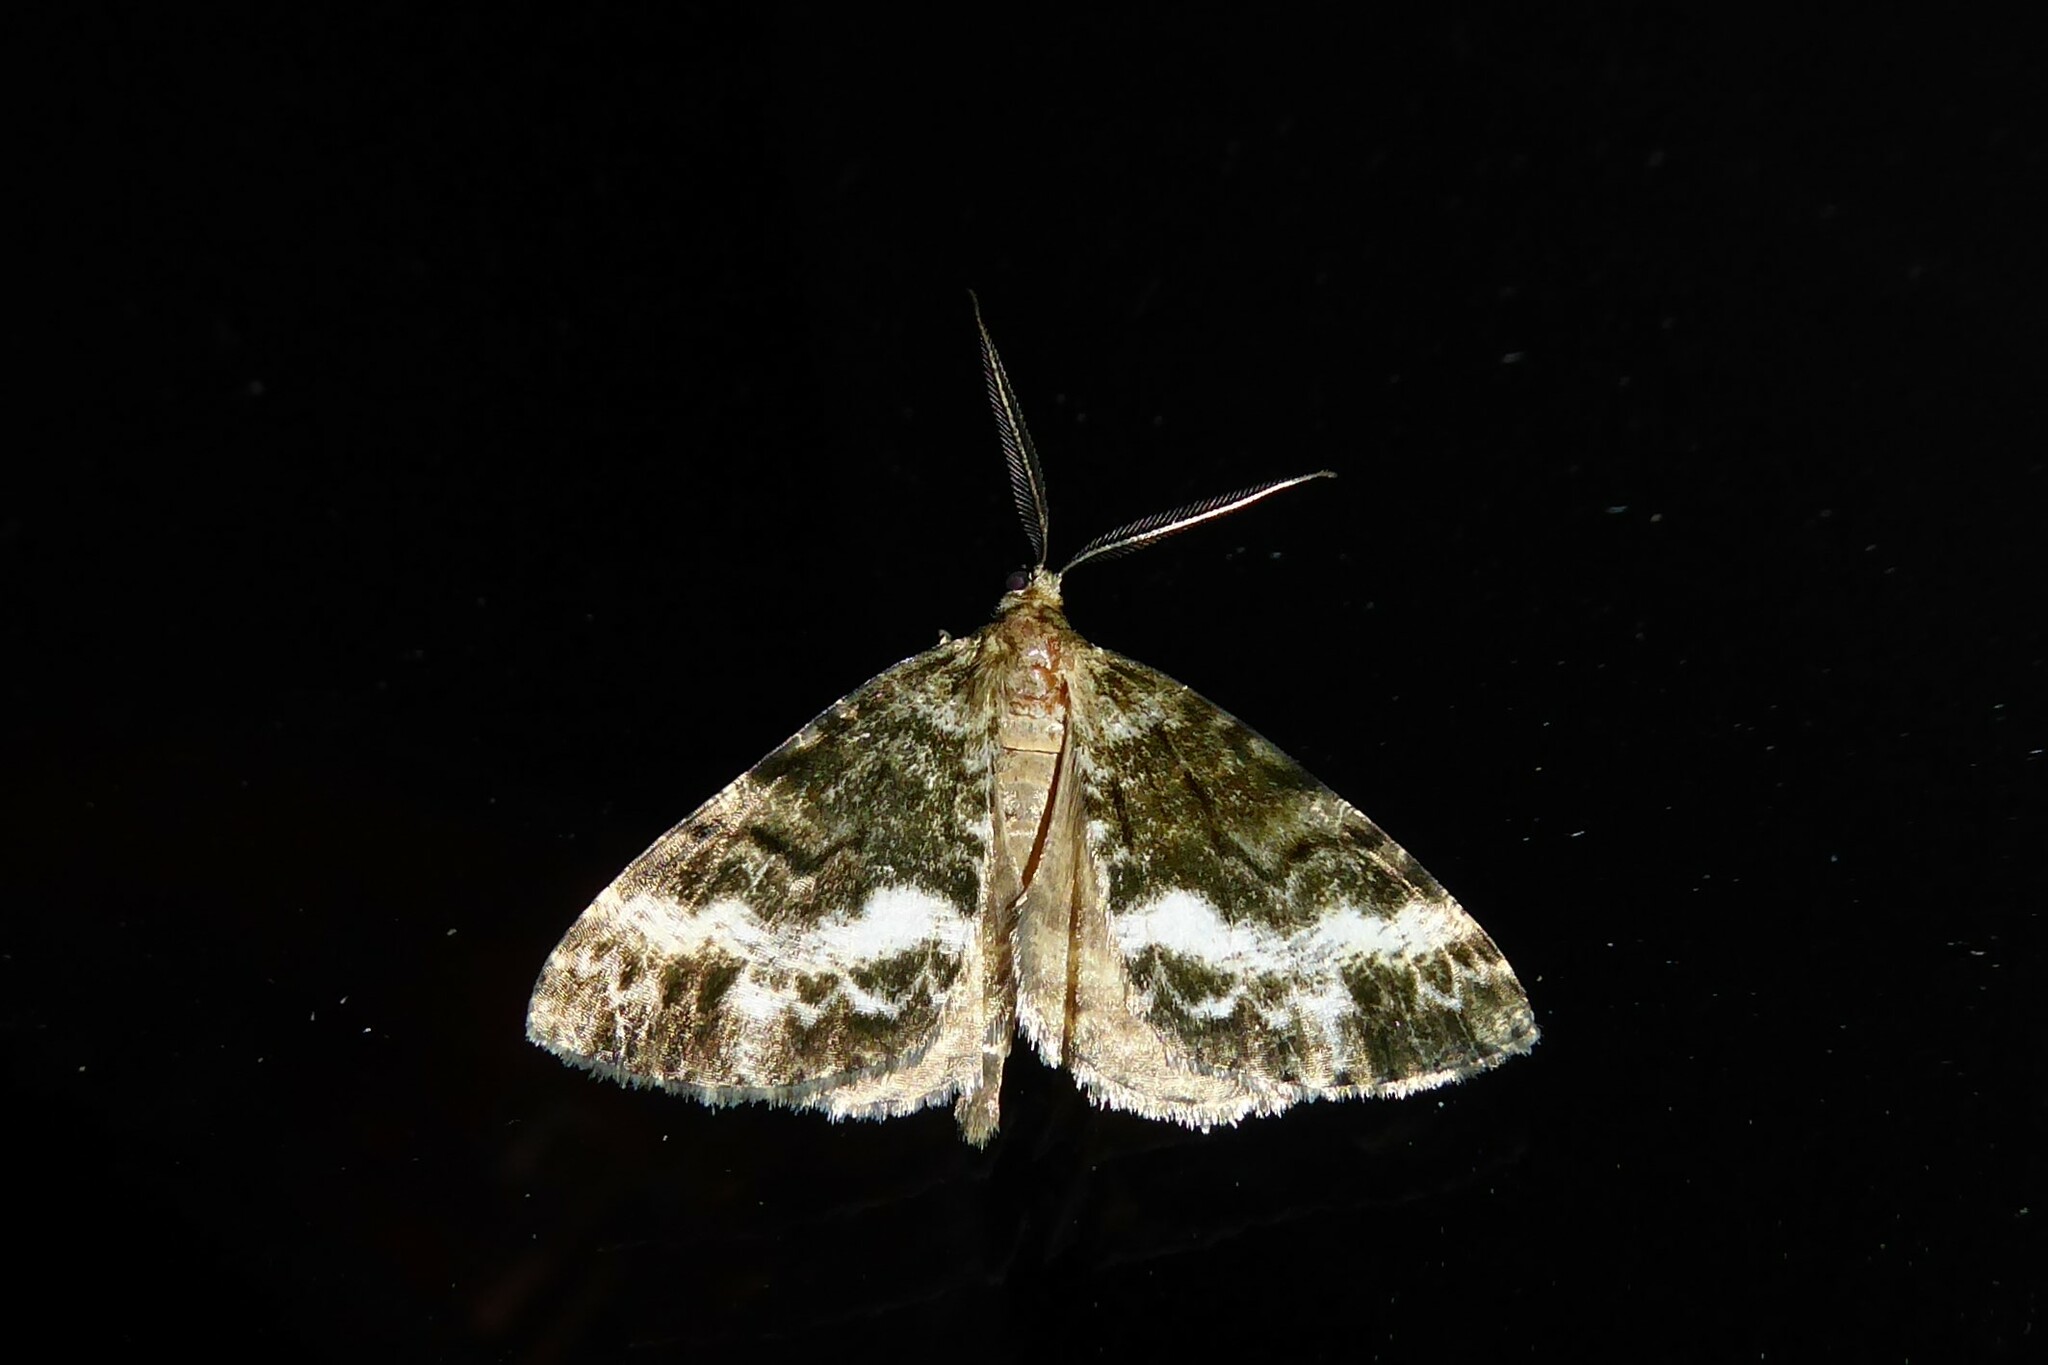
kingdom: Animalia
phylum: Arthropoda
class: Insecta
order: Lepidoptera
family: Geometridae
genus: Pseudocoremia
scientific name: Pseudocoremia lactiflua
